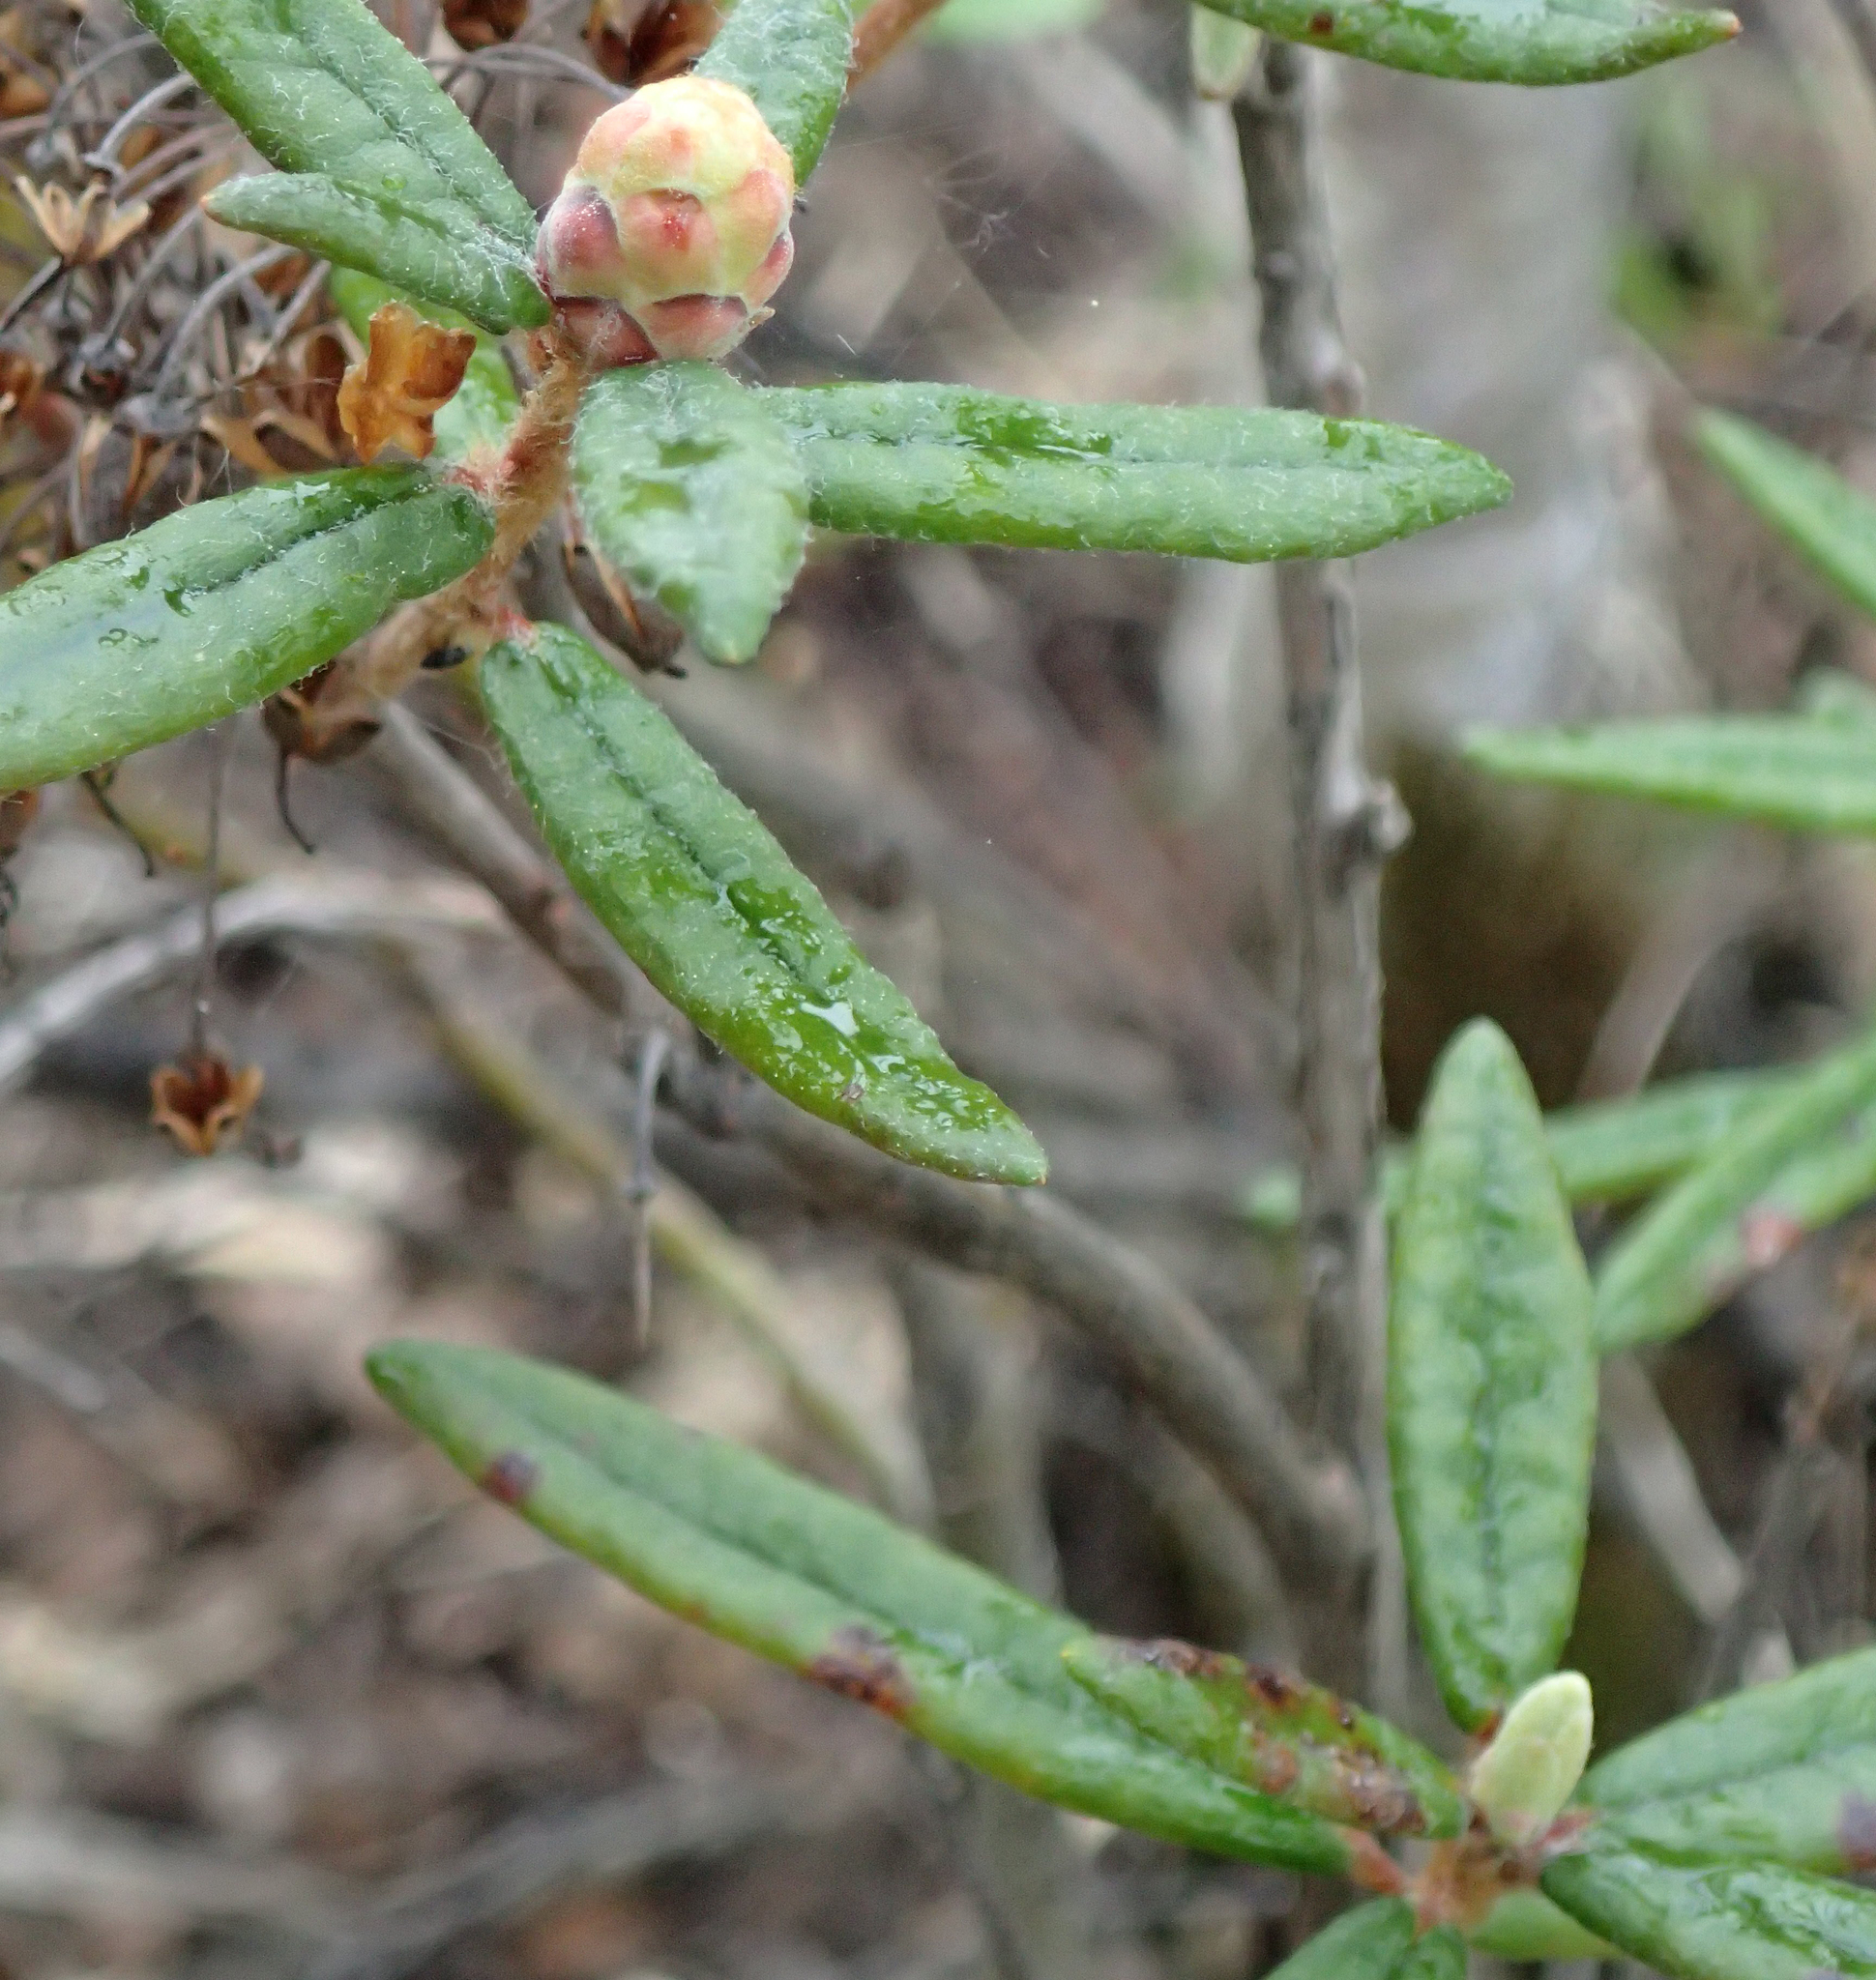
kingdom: Plantae
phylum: Tracheophyta
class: Magnoliopsida
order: Ericales
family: Ericaceae
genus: Rhododendron
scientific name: Rhododendron groenlandicum
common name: Bog labrador tea
